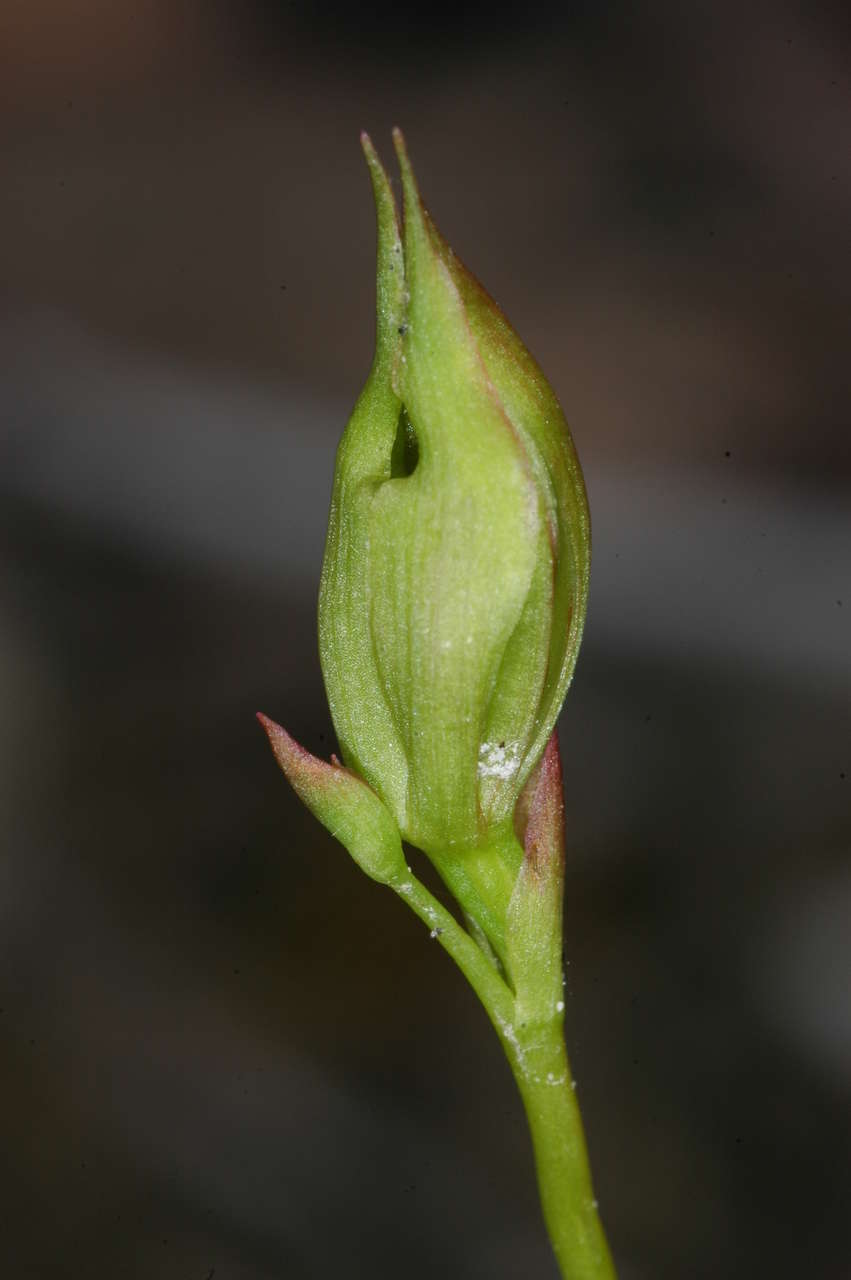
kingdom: Plantae
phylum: Tracheophyta
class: Liliopsida
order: Asparagales
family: Orchidaceae
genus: Caleana
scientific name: Caleana major
